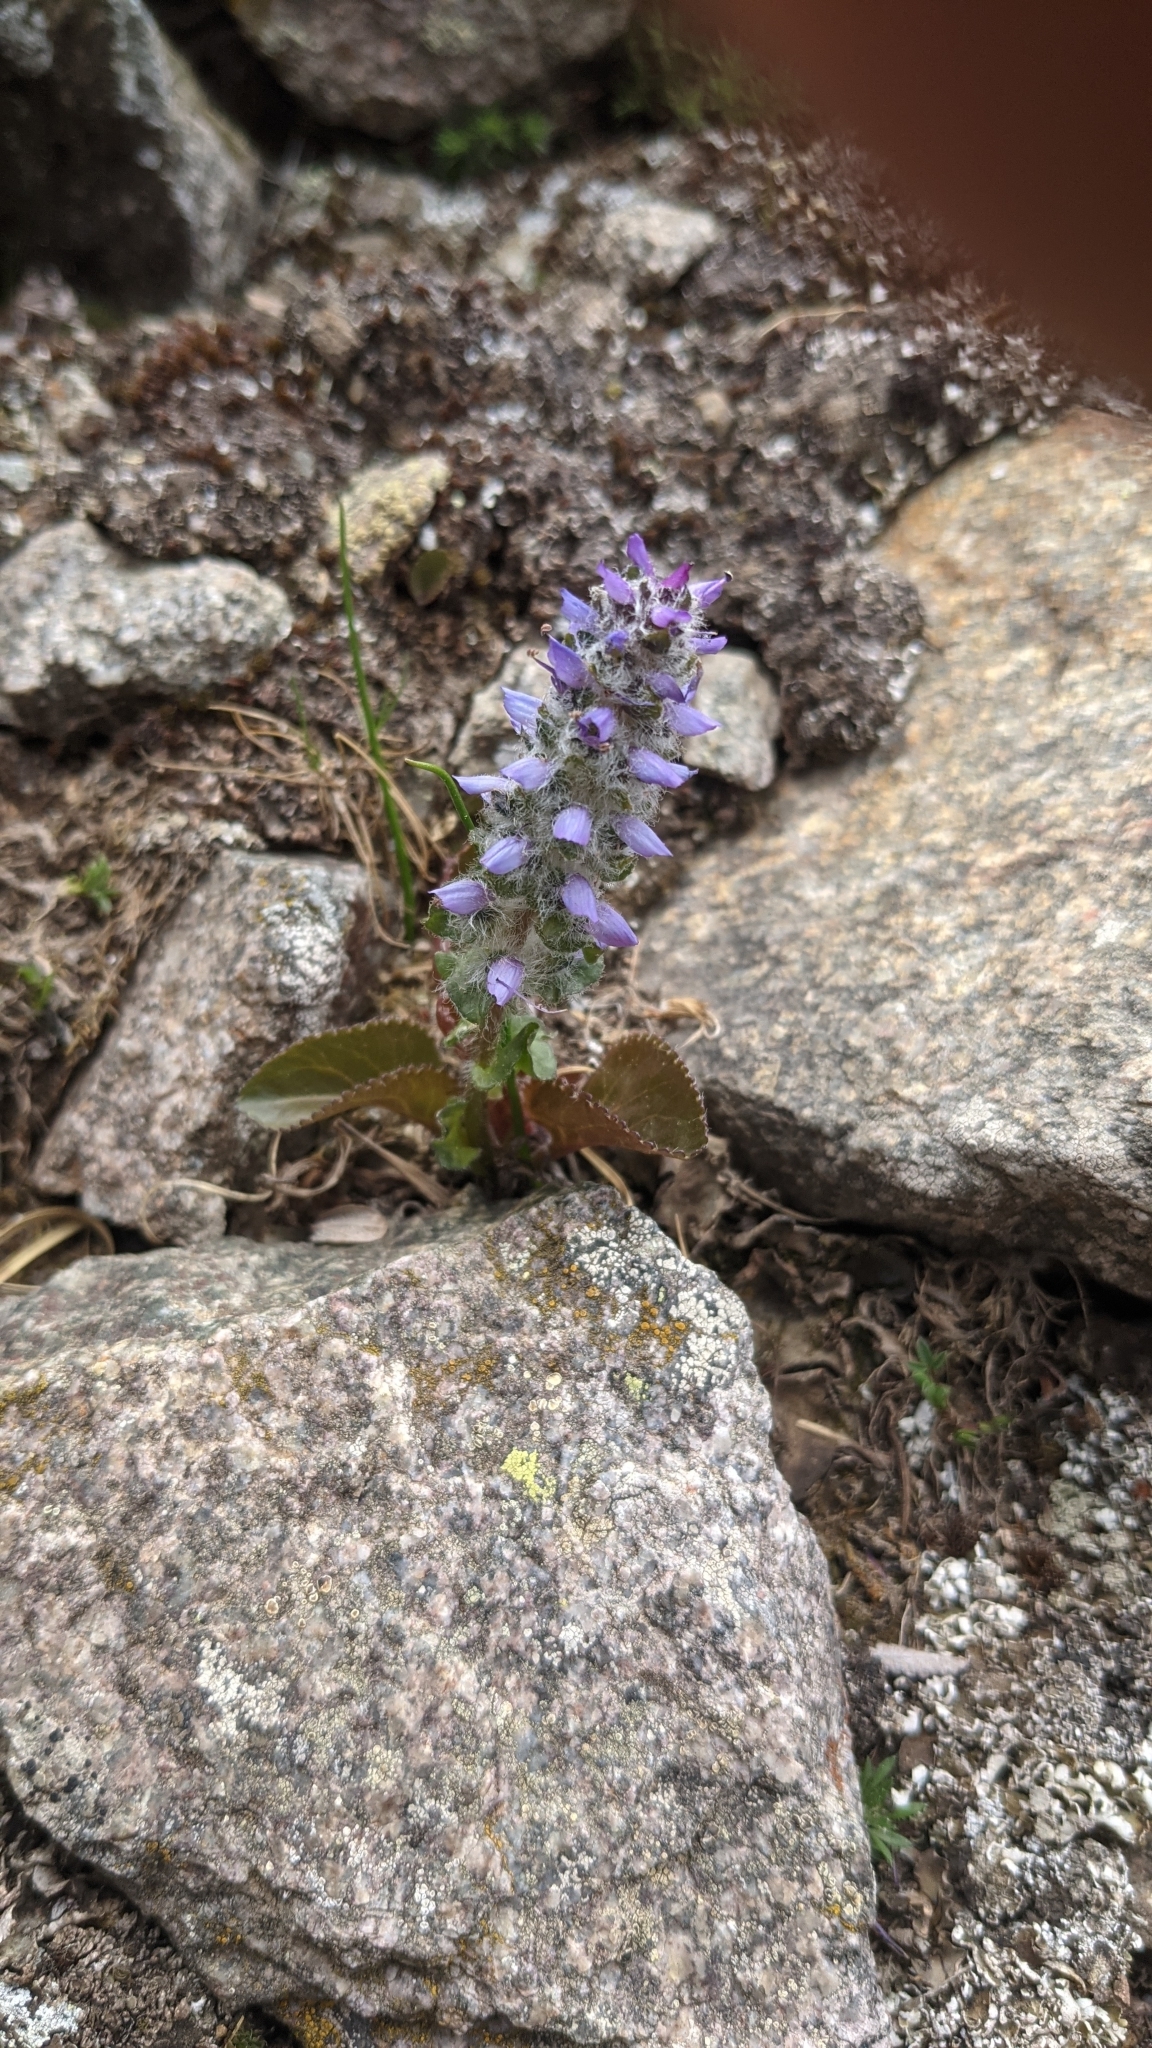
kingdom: Plantae
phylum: Tracheophyta
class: Magnoliopsida
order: Lamiales
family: Plantaginaceae
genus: Synthyris
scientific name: Synthyris alpina
